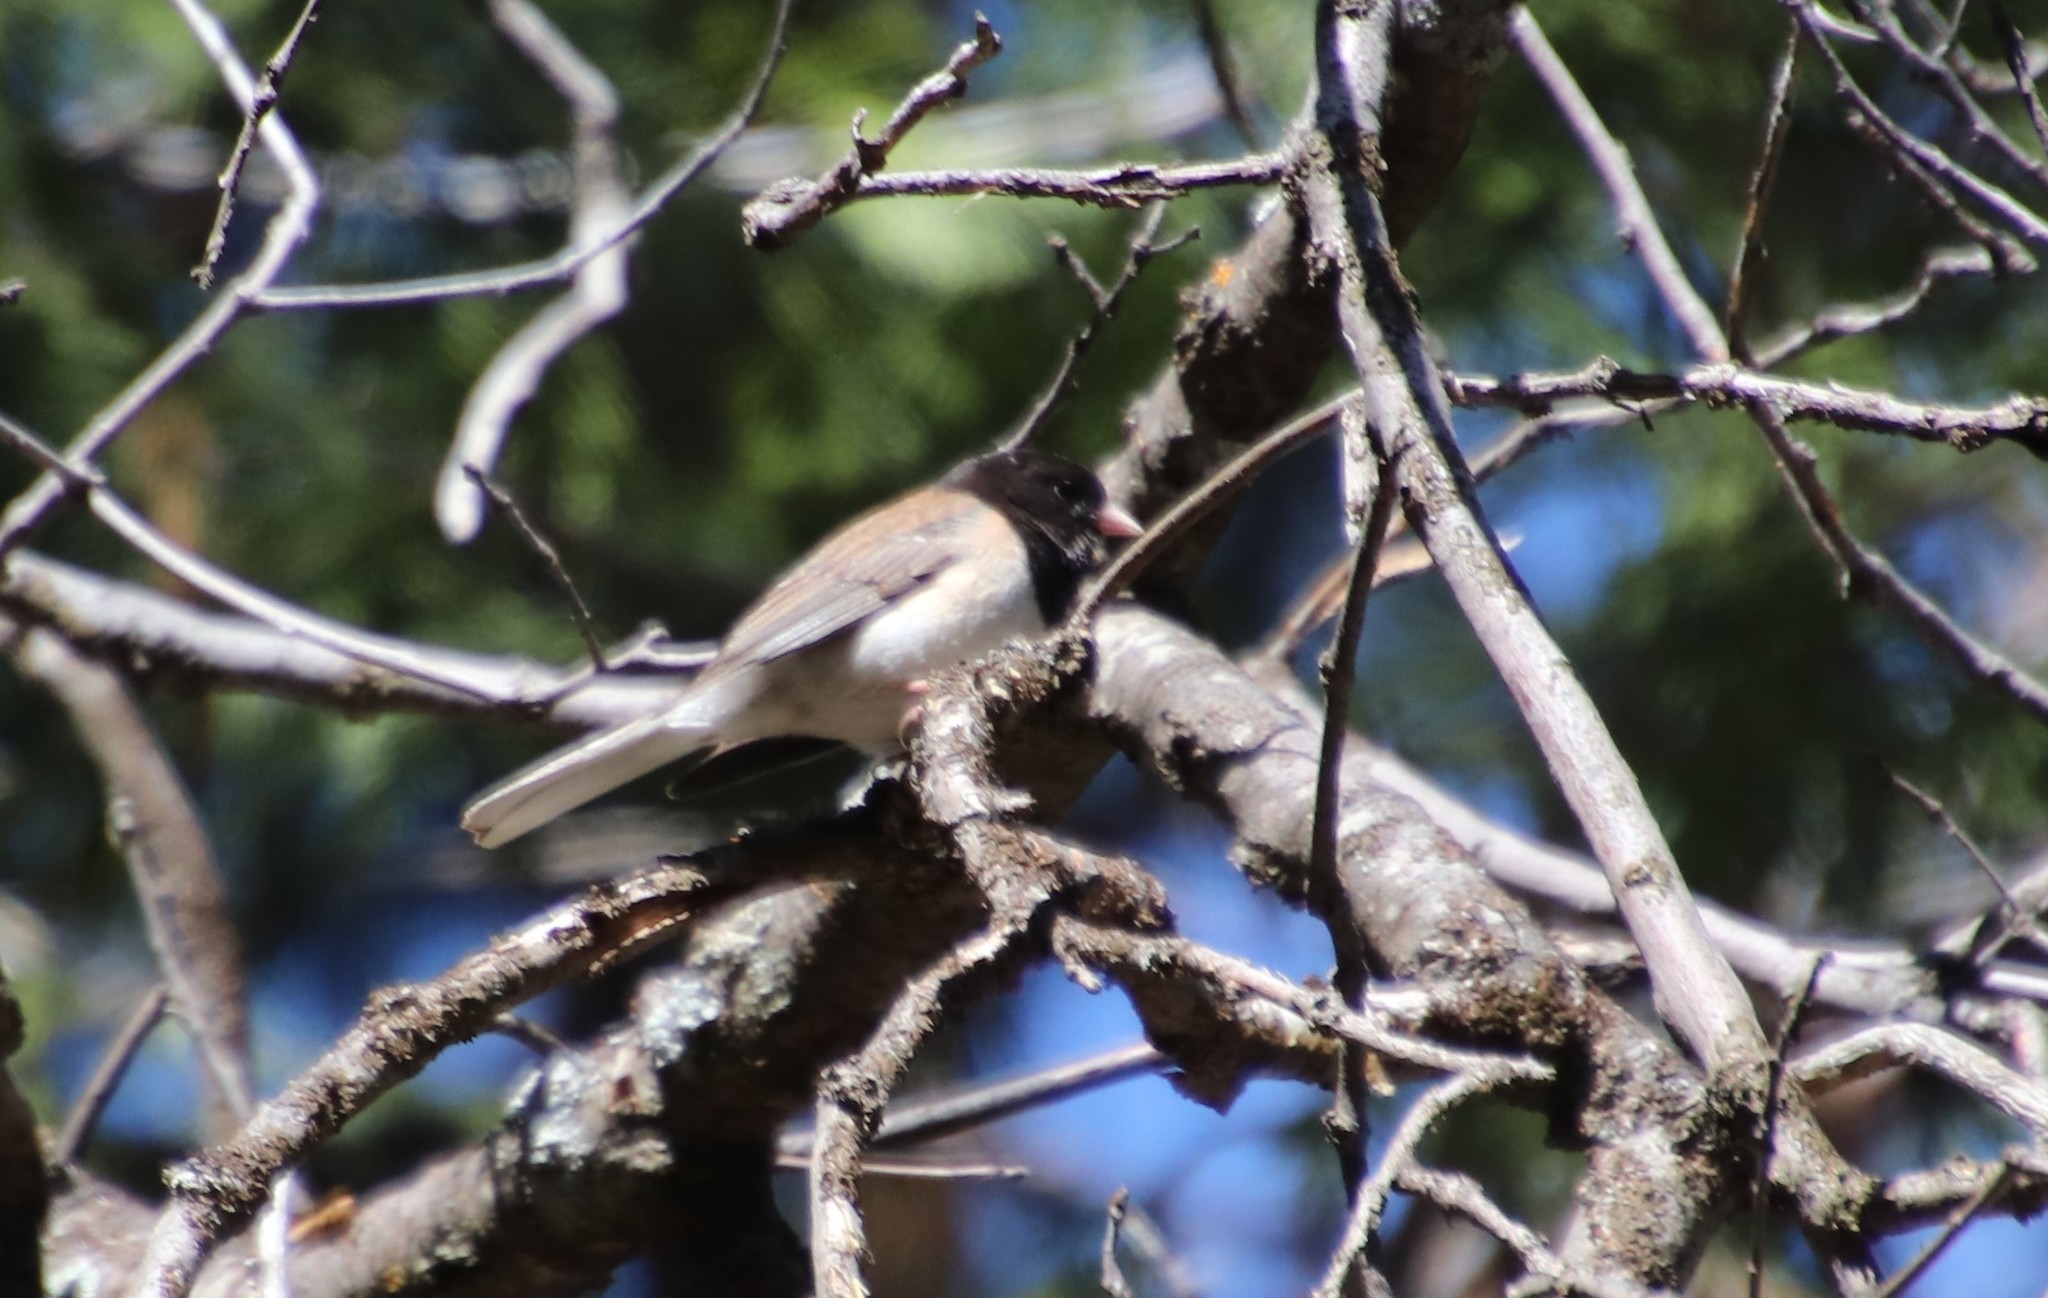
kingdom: Animalia
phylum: Chordata
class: Aves
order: Passeriformes
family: Passerellidae
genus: Junco
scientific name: Junco hyemalis
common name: Dark-eyed junco
